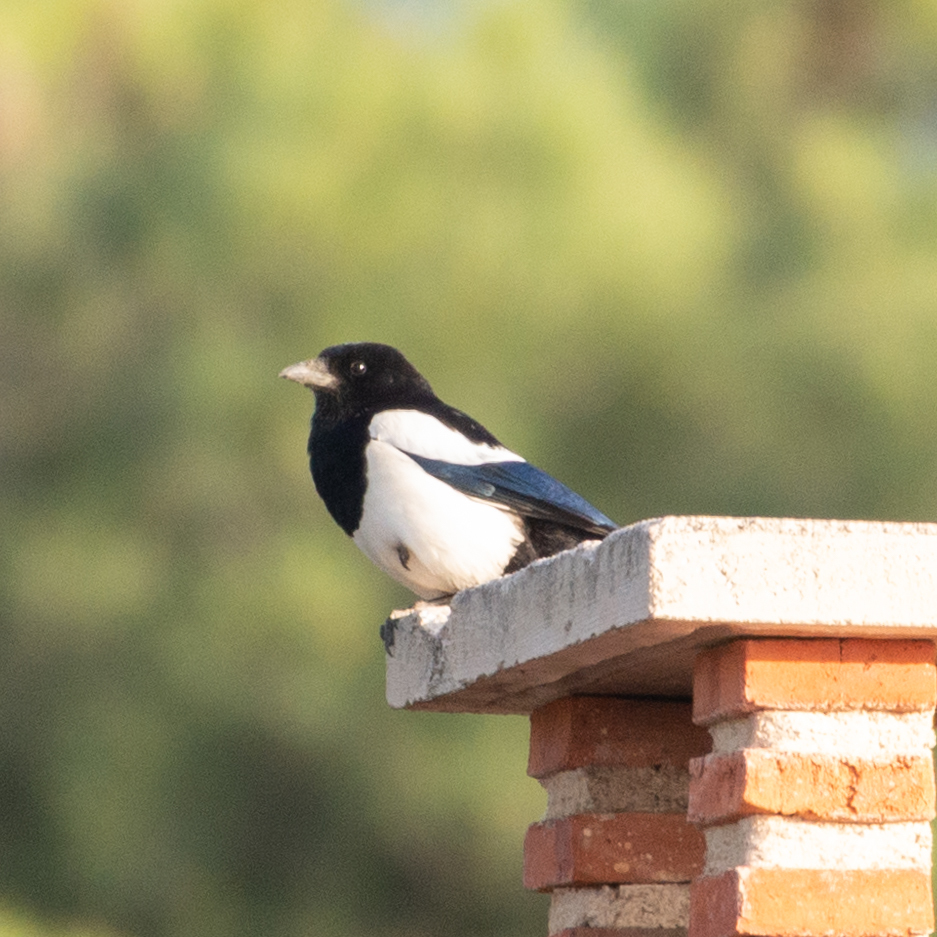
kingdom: Animalia
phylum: Chordata
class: Aves
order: Passeriformes
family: Corvidae
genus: Pica
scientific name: Pica pica
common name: Eurasian magpie
